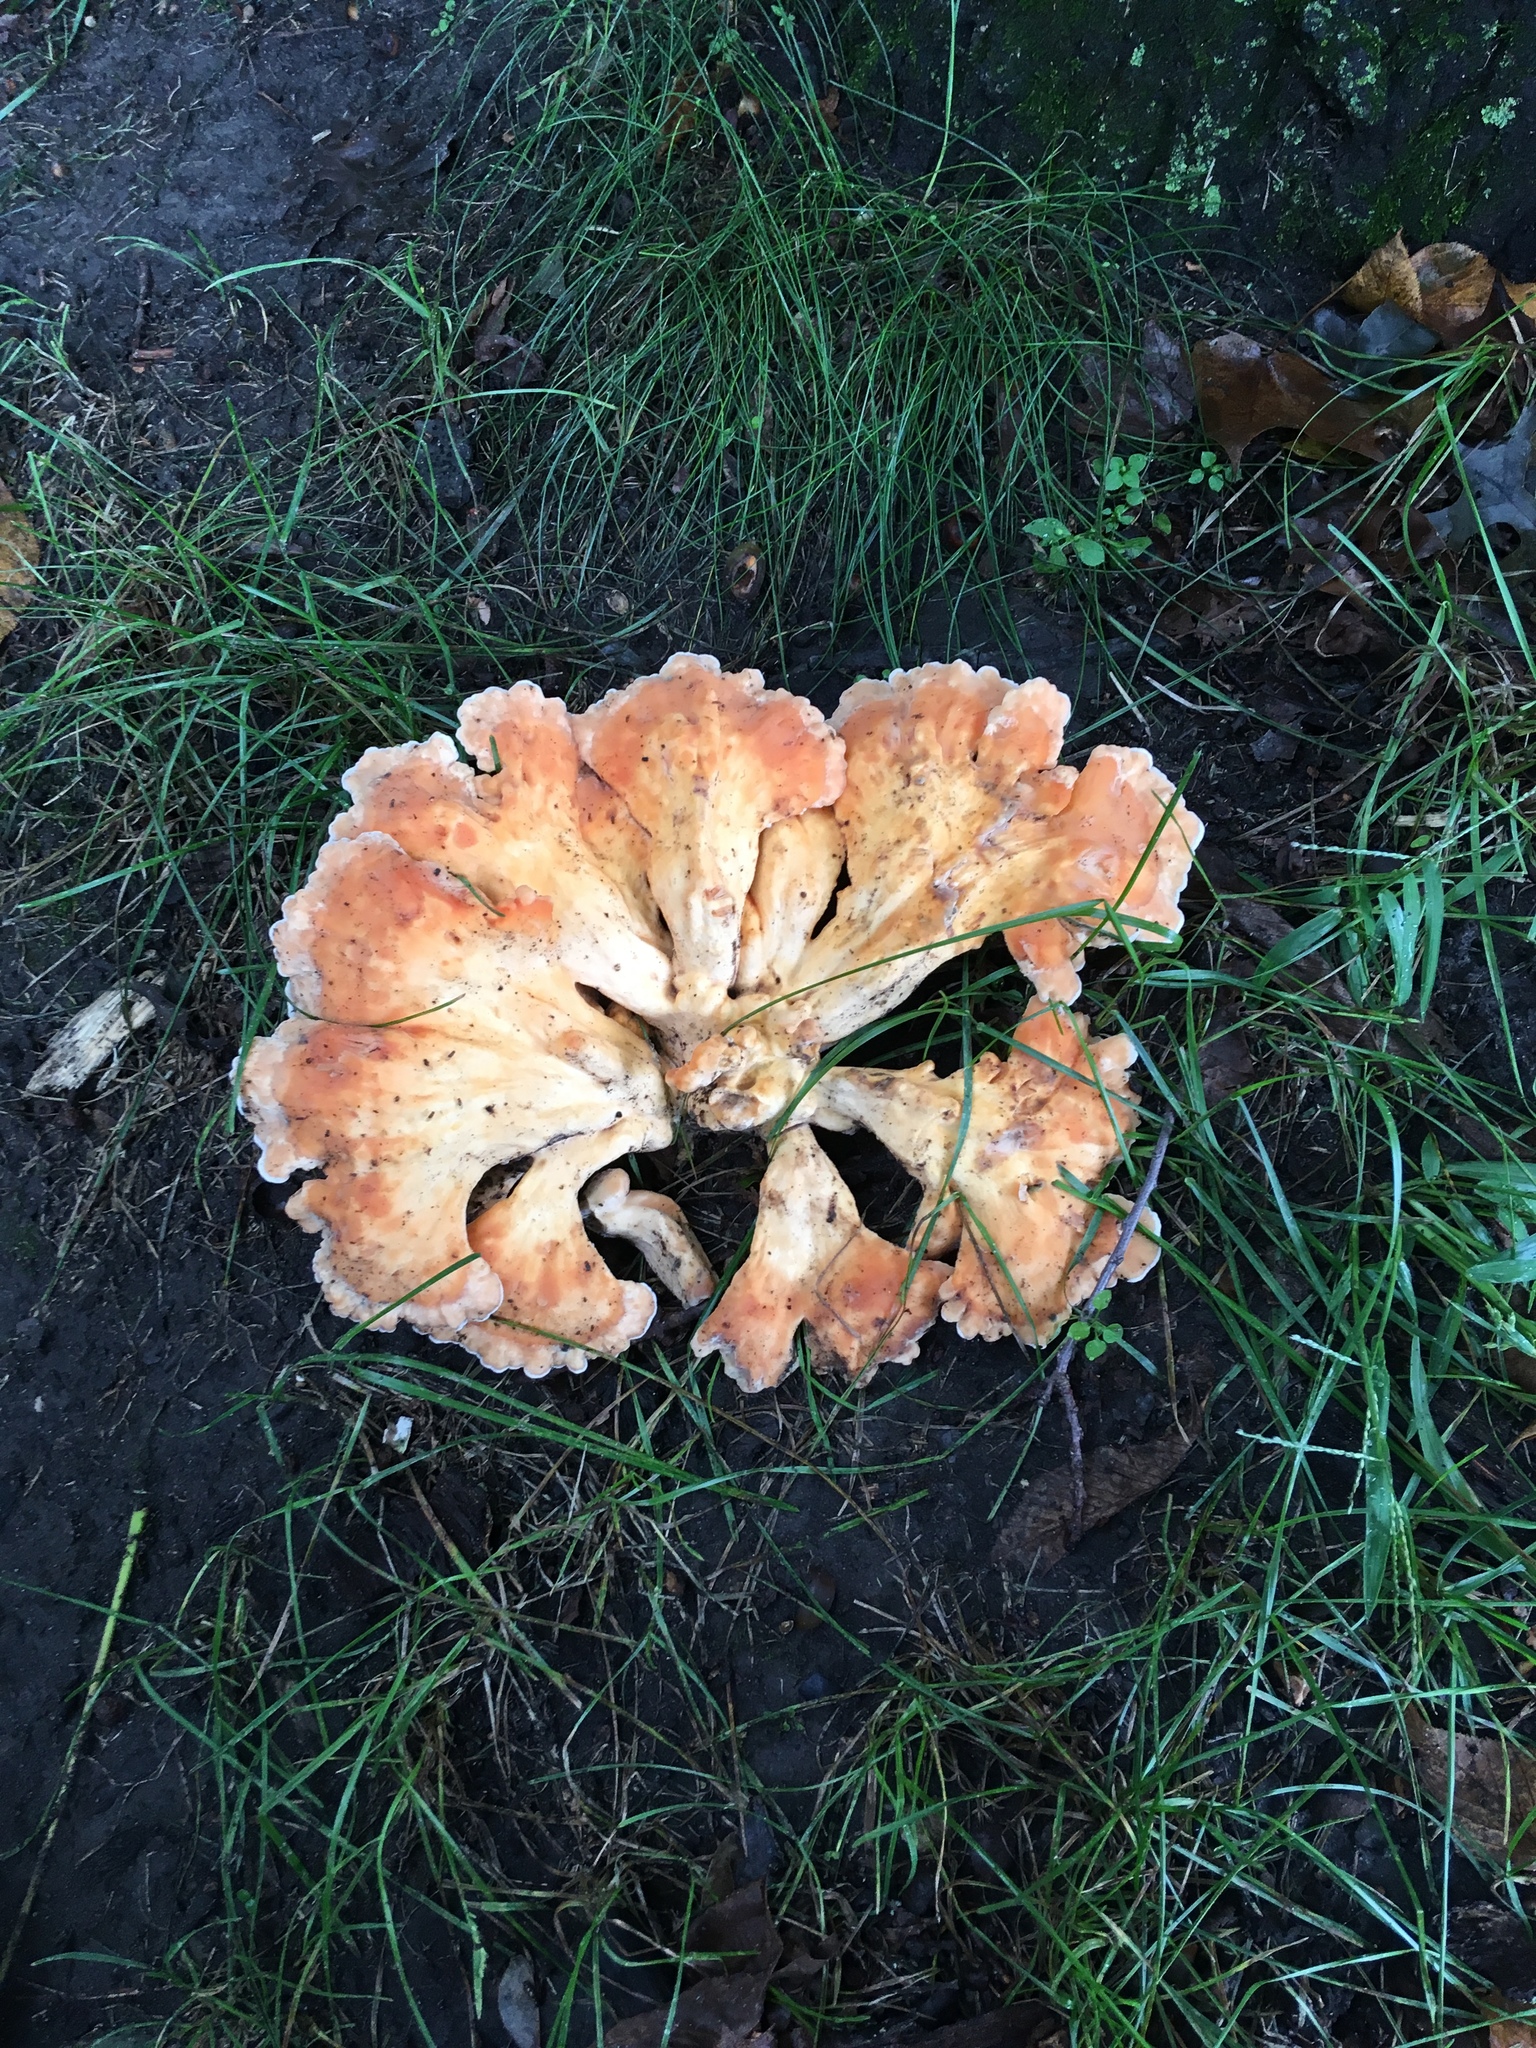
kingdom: Fungi
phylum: Basidiomycota
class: Agaricomycetes
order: Polyporales
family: Laetiporaceae
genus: Laetiporus
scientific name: Laetiporus sulphureus
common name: Chicken of the woods
